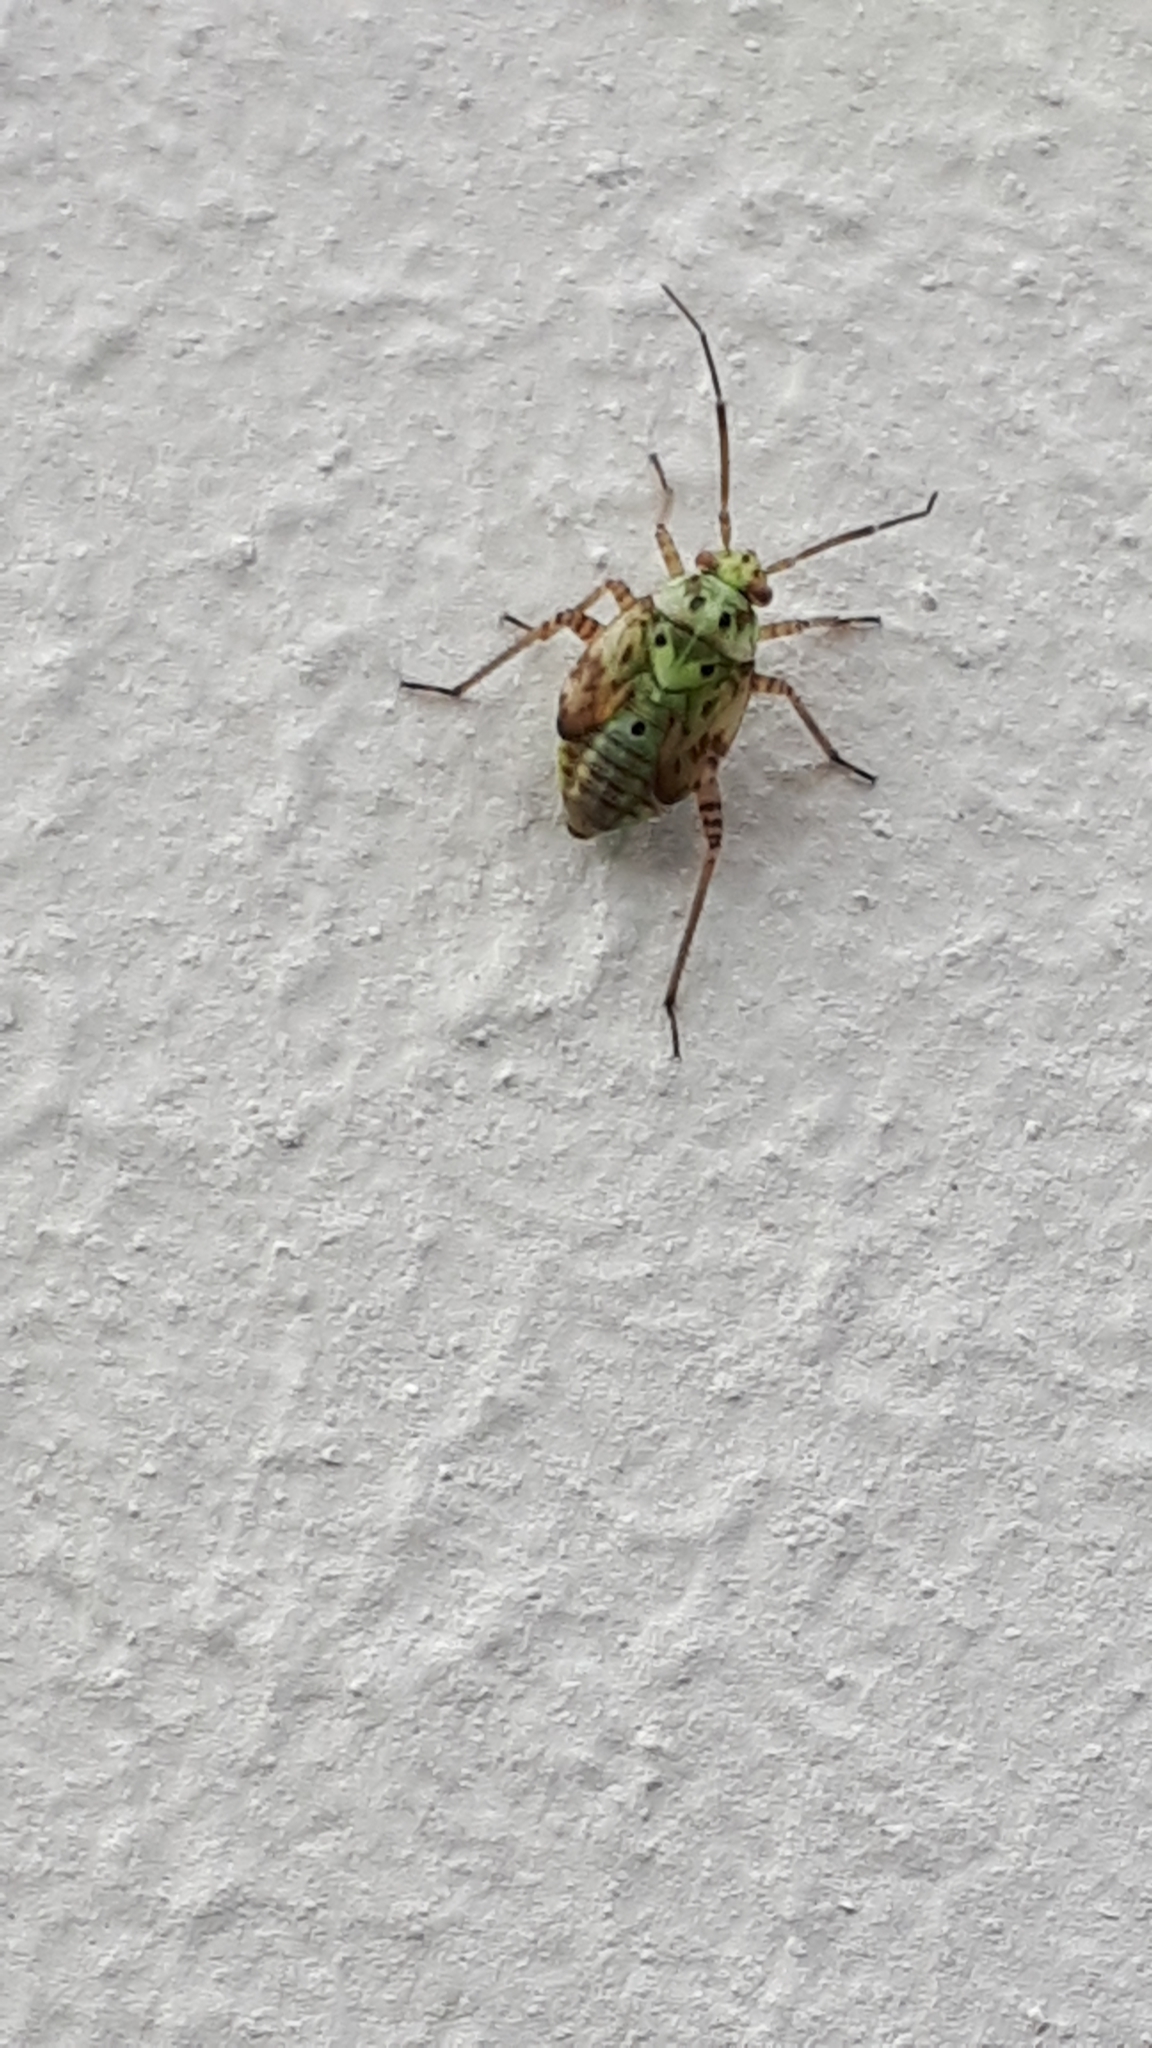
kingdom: Animalia
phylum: Arthropoda
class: Insecta
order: Hemiptera
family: Miridae
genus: Lygus
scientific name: Lygus pratensis
